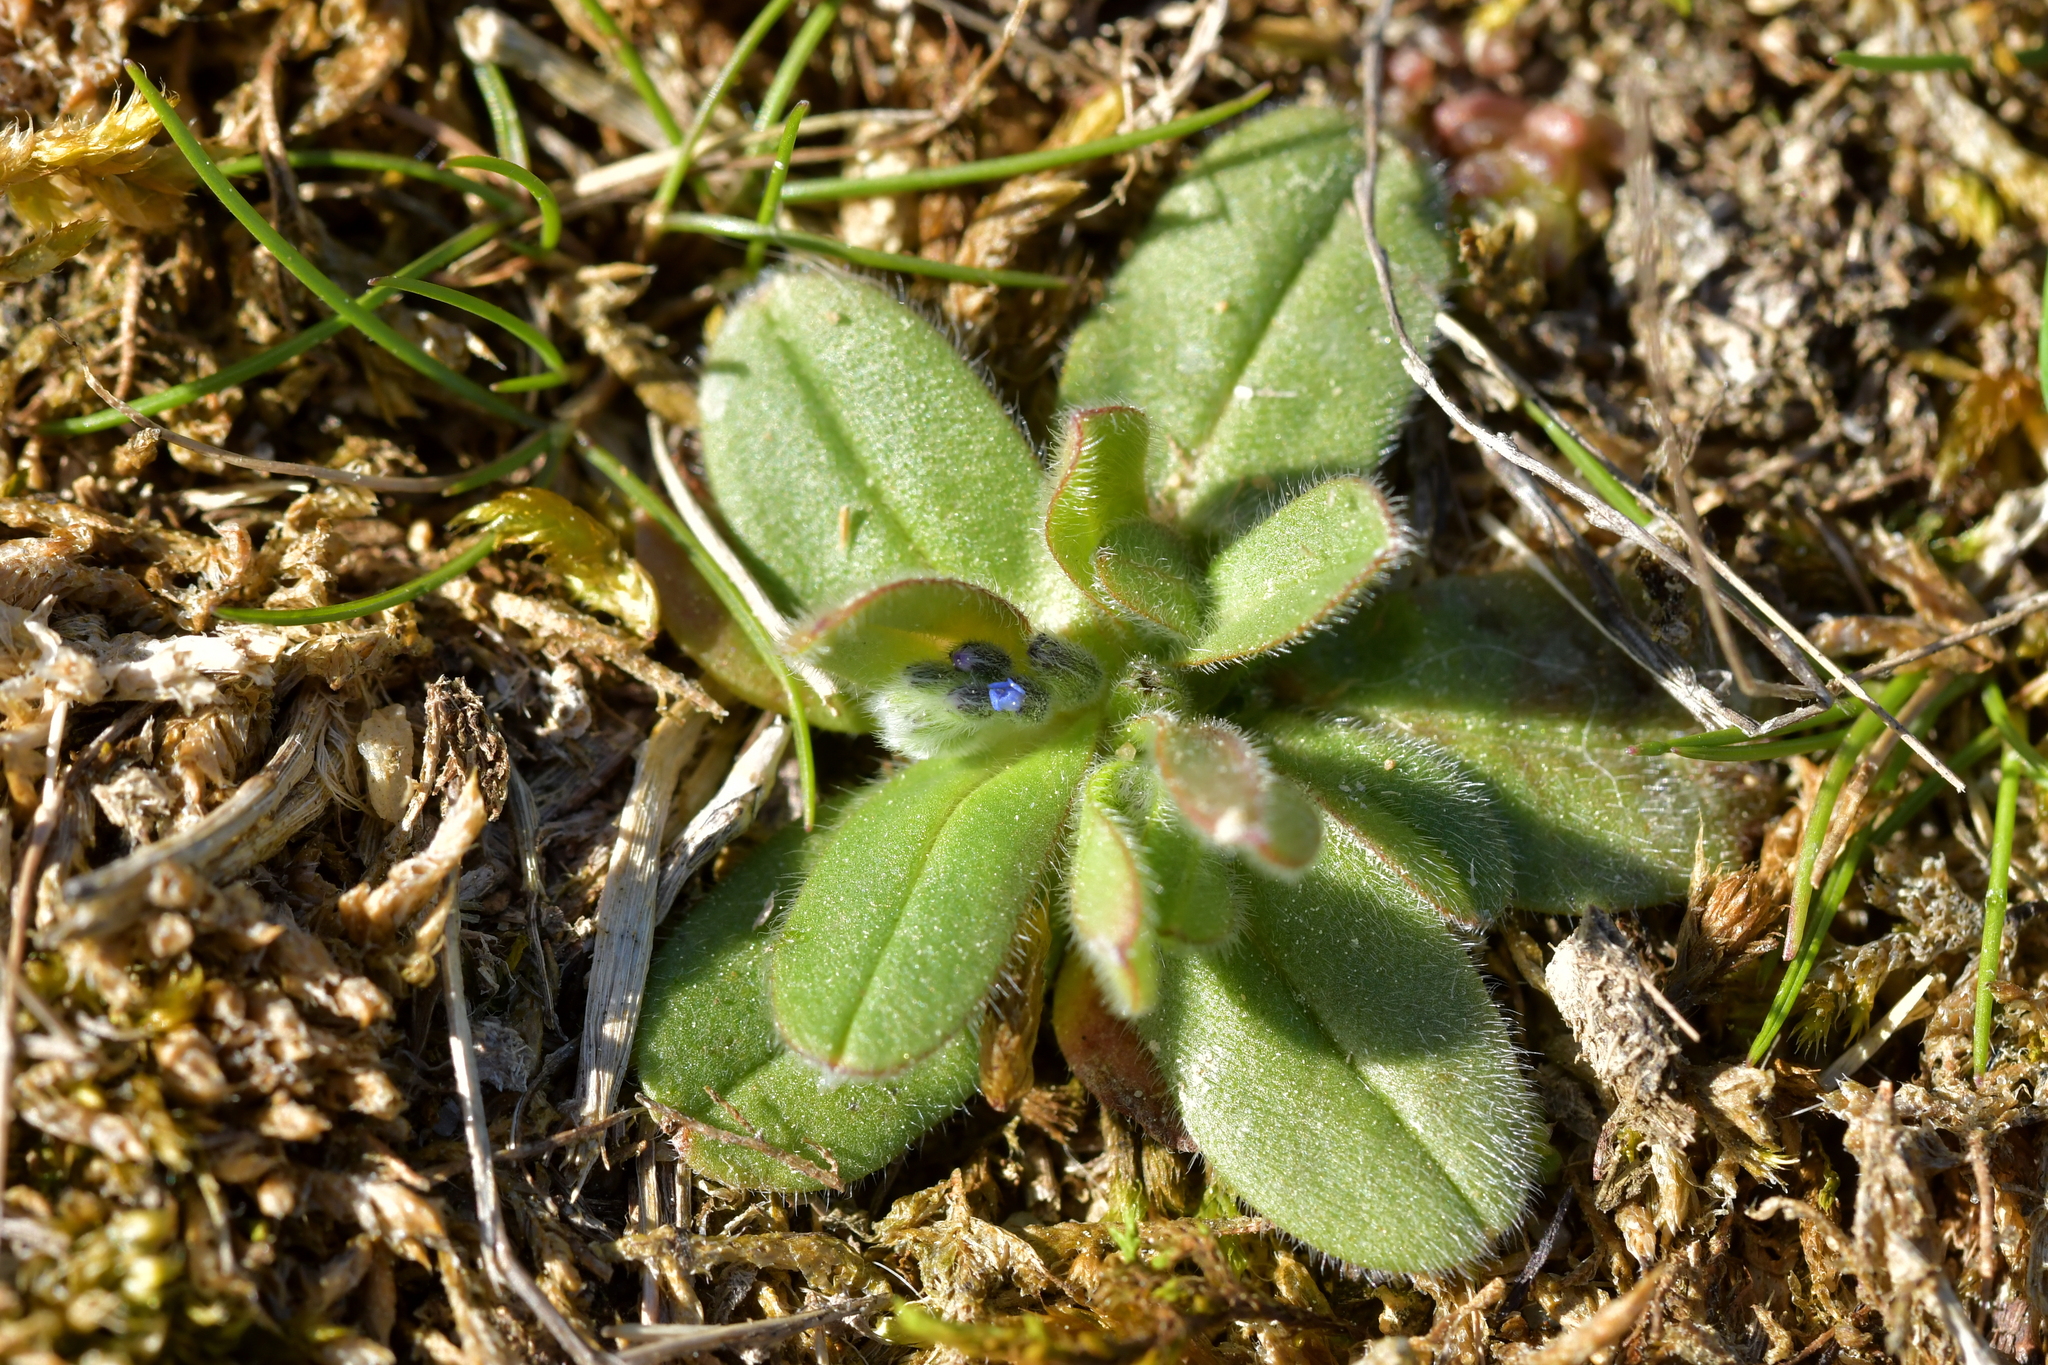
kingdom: Plantae
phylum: Tracheophyta
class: Magnoliopsida
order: Boraginales
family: Boraginaceae
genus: Myosotis
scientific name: Myosotis stricta
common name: Strict forget-me-not
